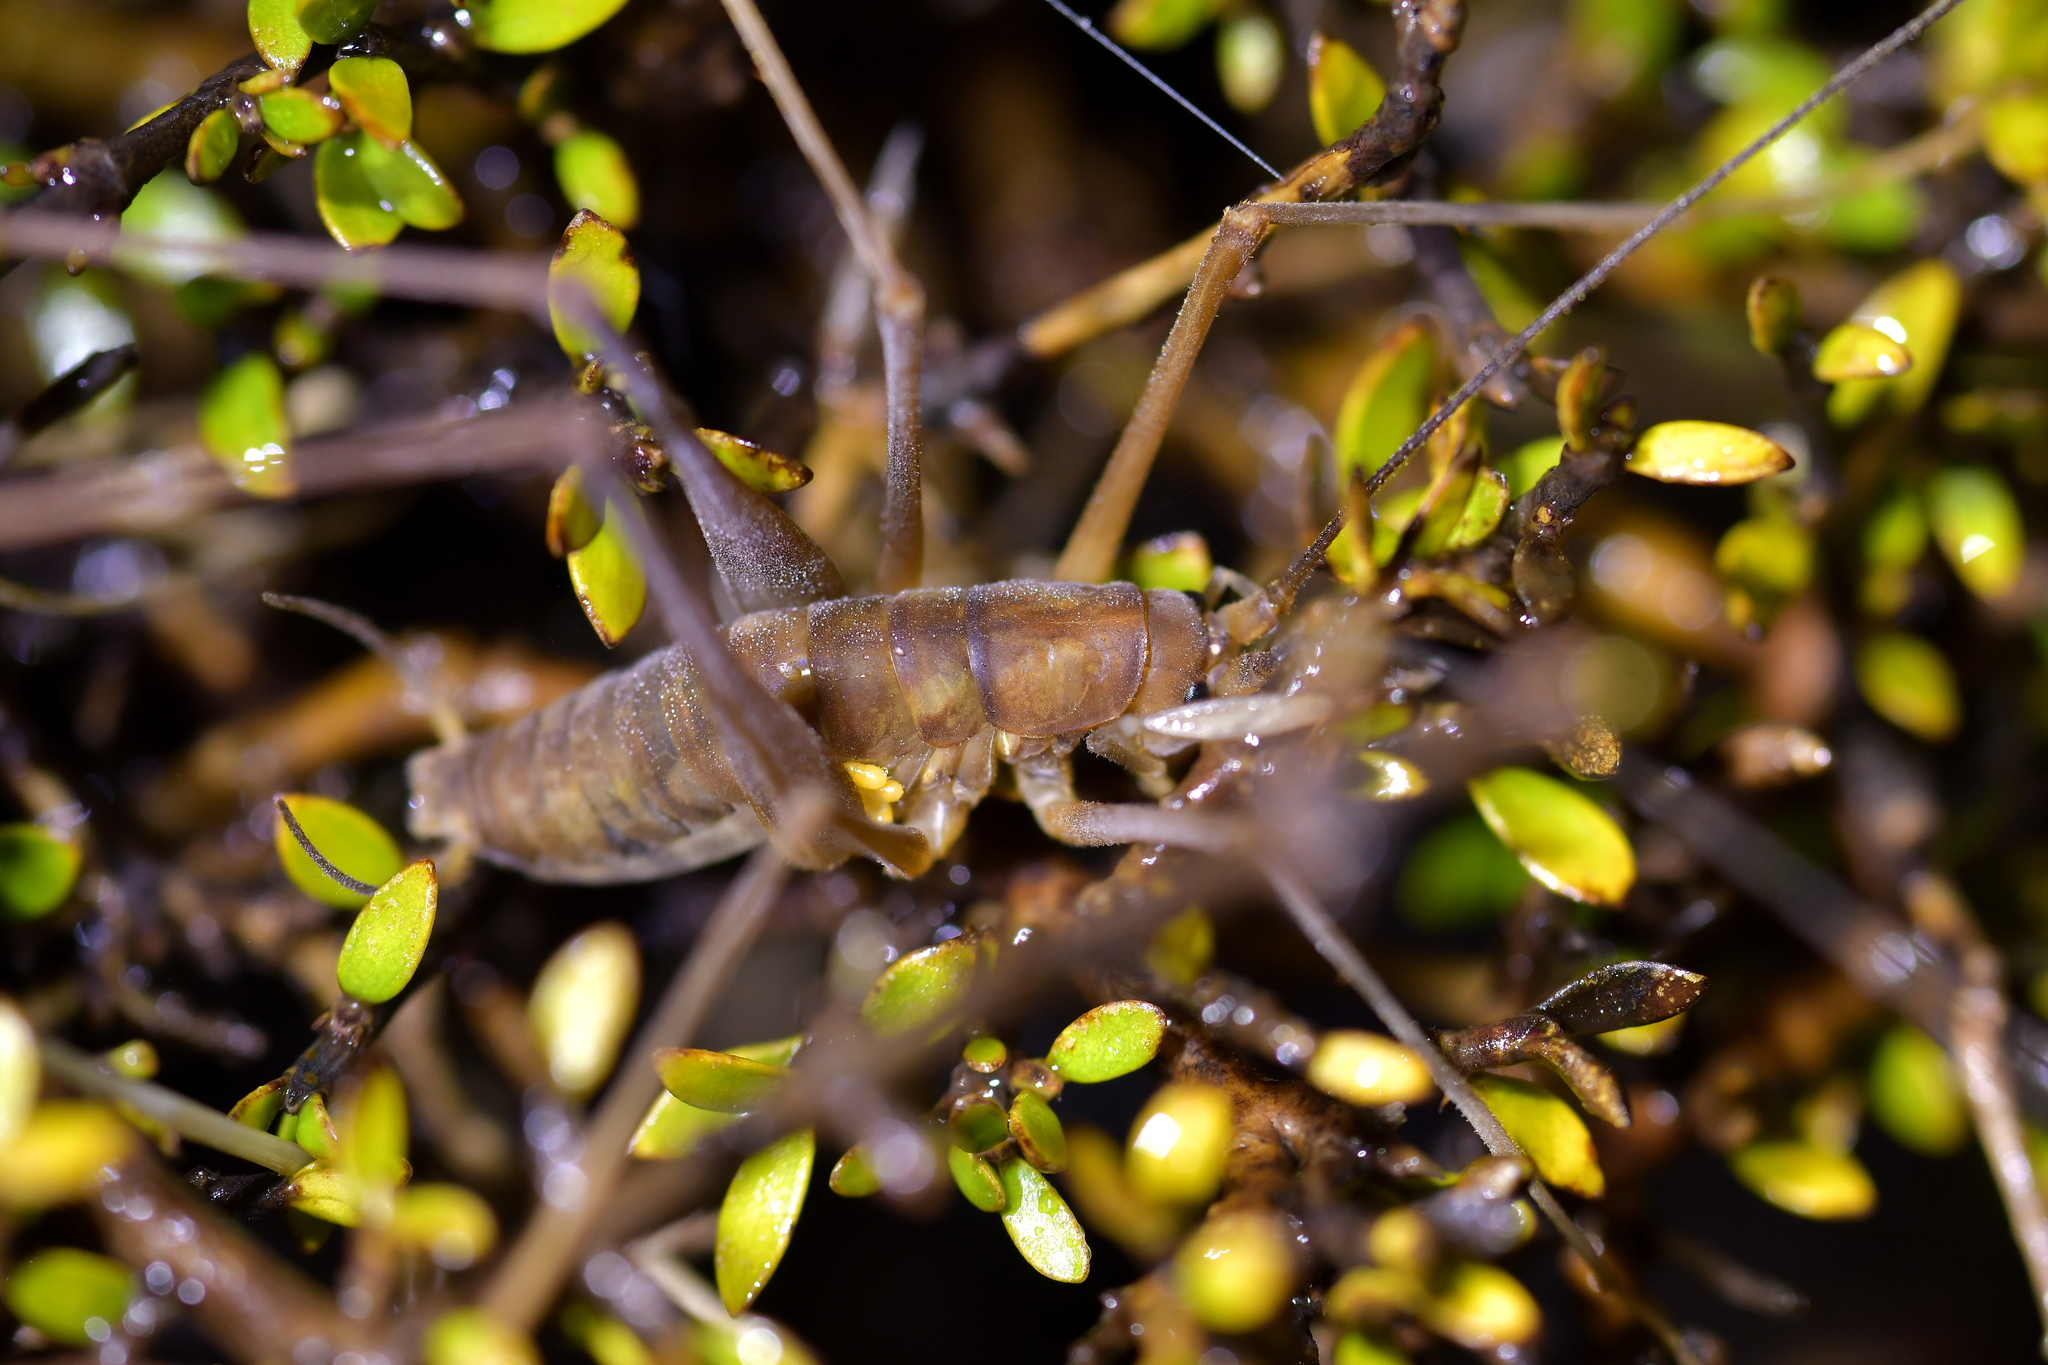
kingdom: Animalia
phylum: Arthropoda
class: Insecta
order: Orthoptera
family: Rhaphidophoridae
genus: Macropathus
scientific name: Macropathus filifer
